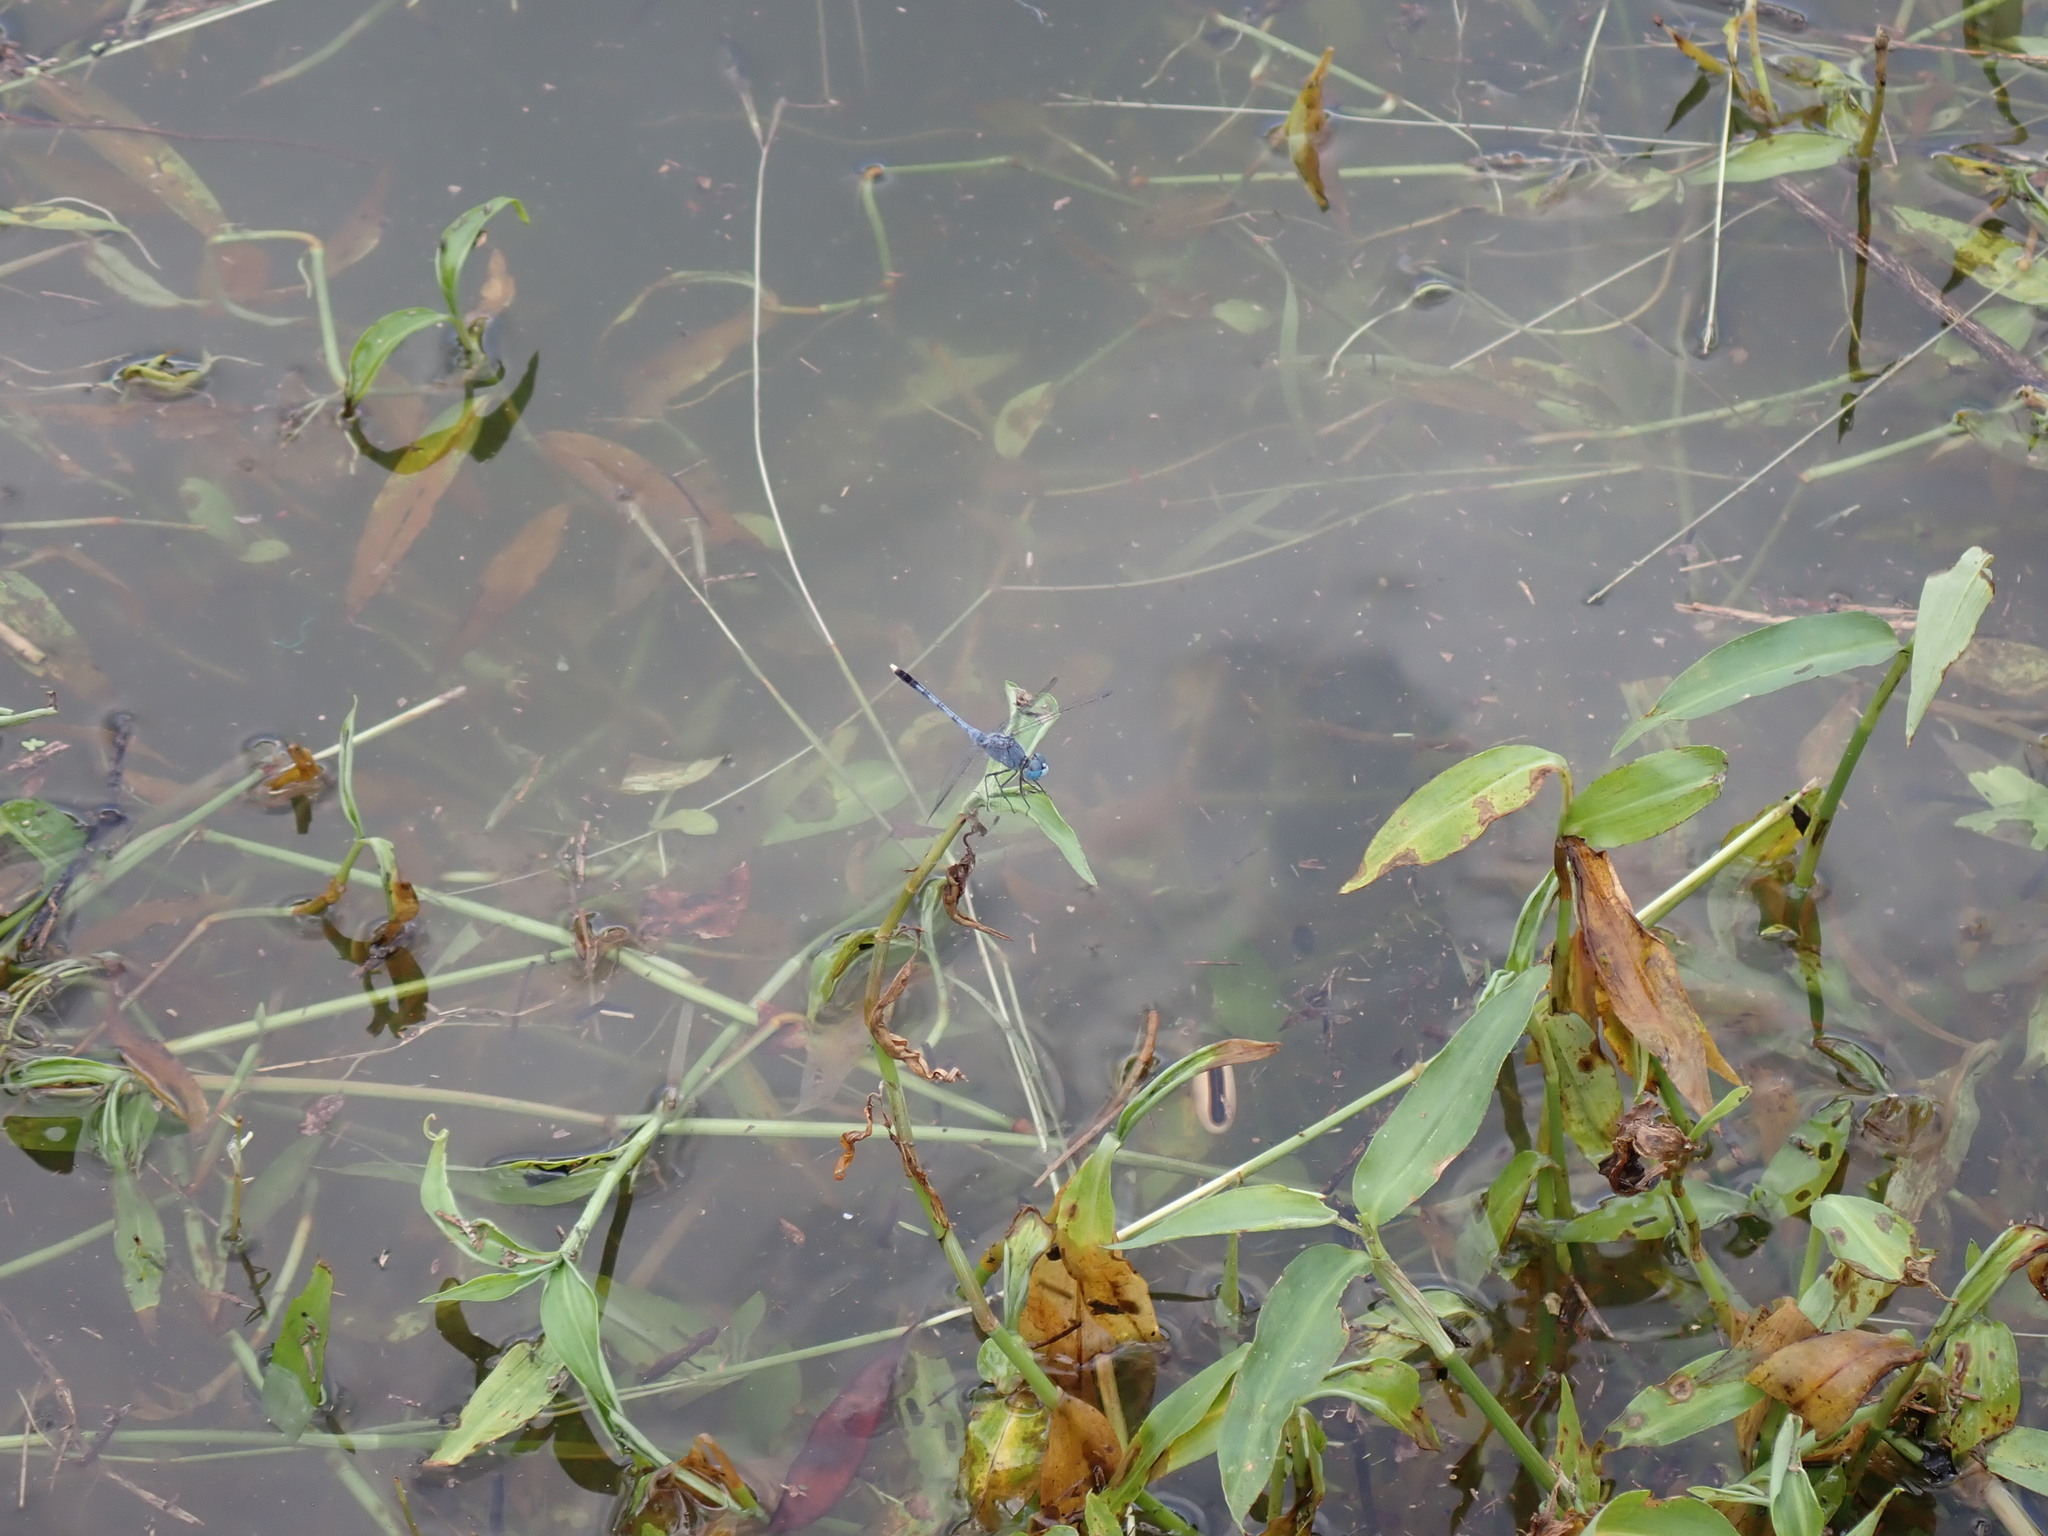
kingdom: Animalia
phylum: Arthropoda
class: Insecta
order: Odonata
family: Libellulidae
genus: Diplacodes
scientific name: Diplacodes trivialis
